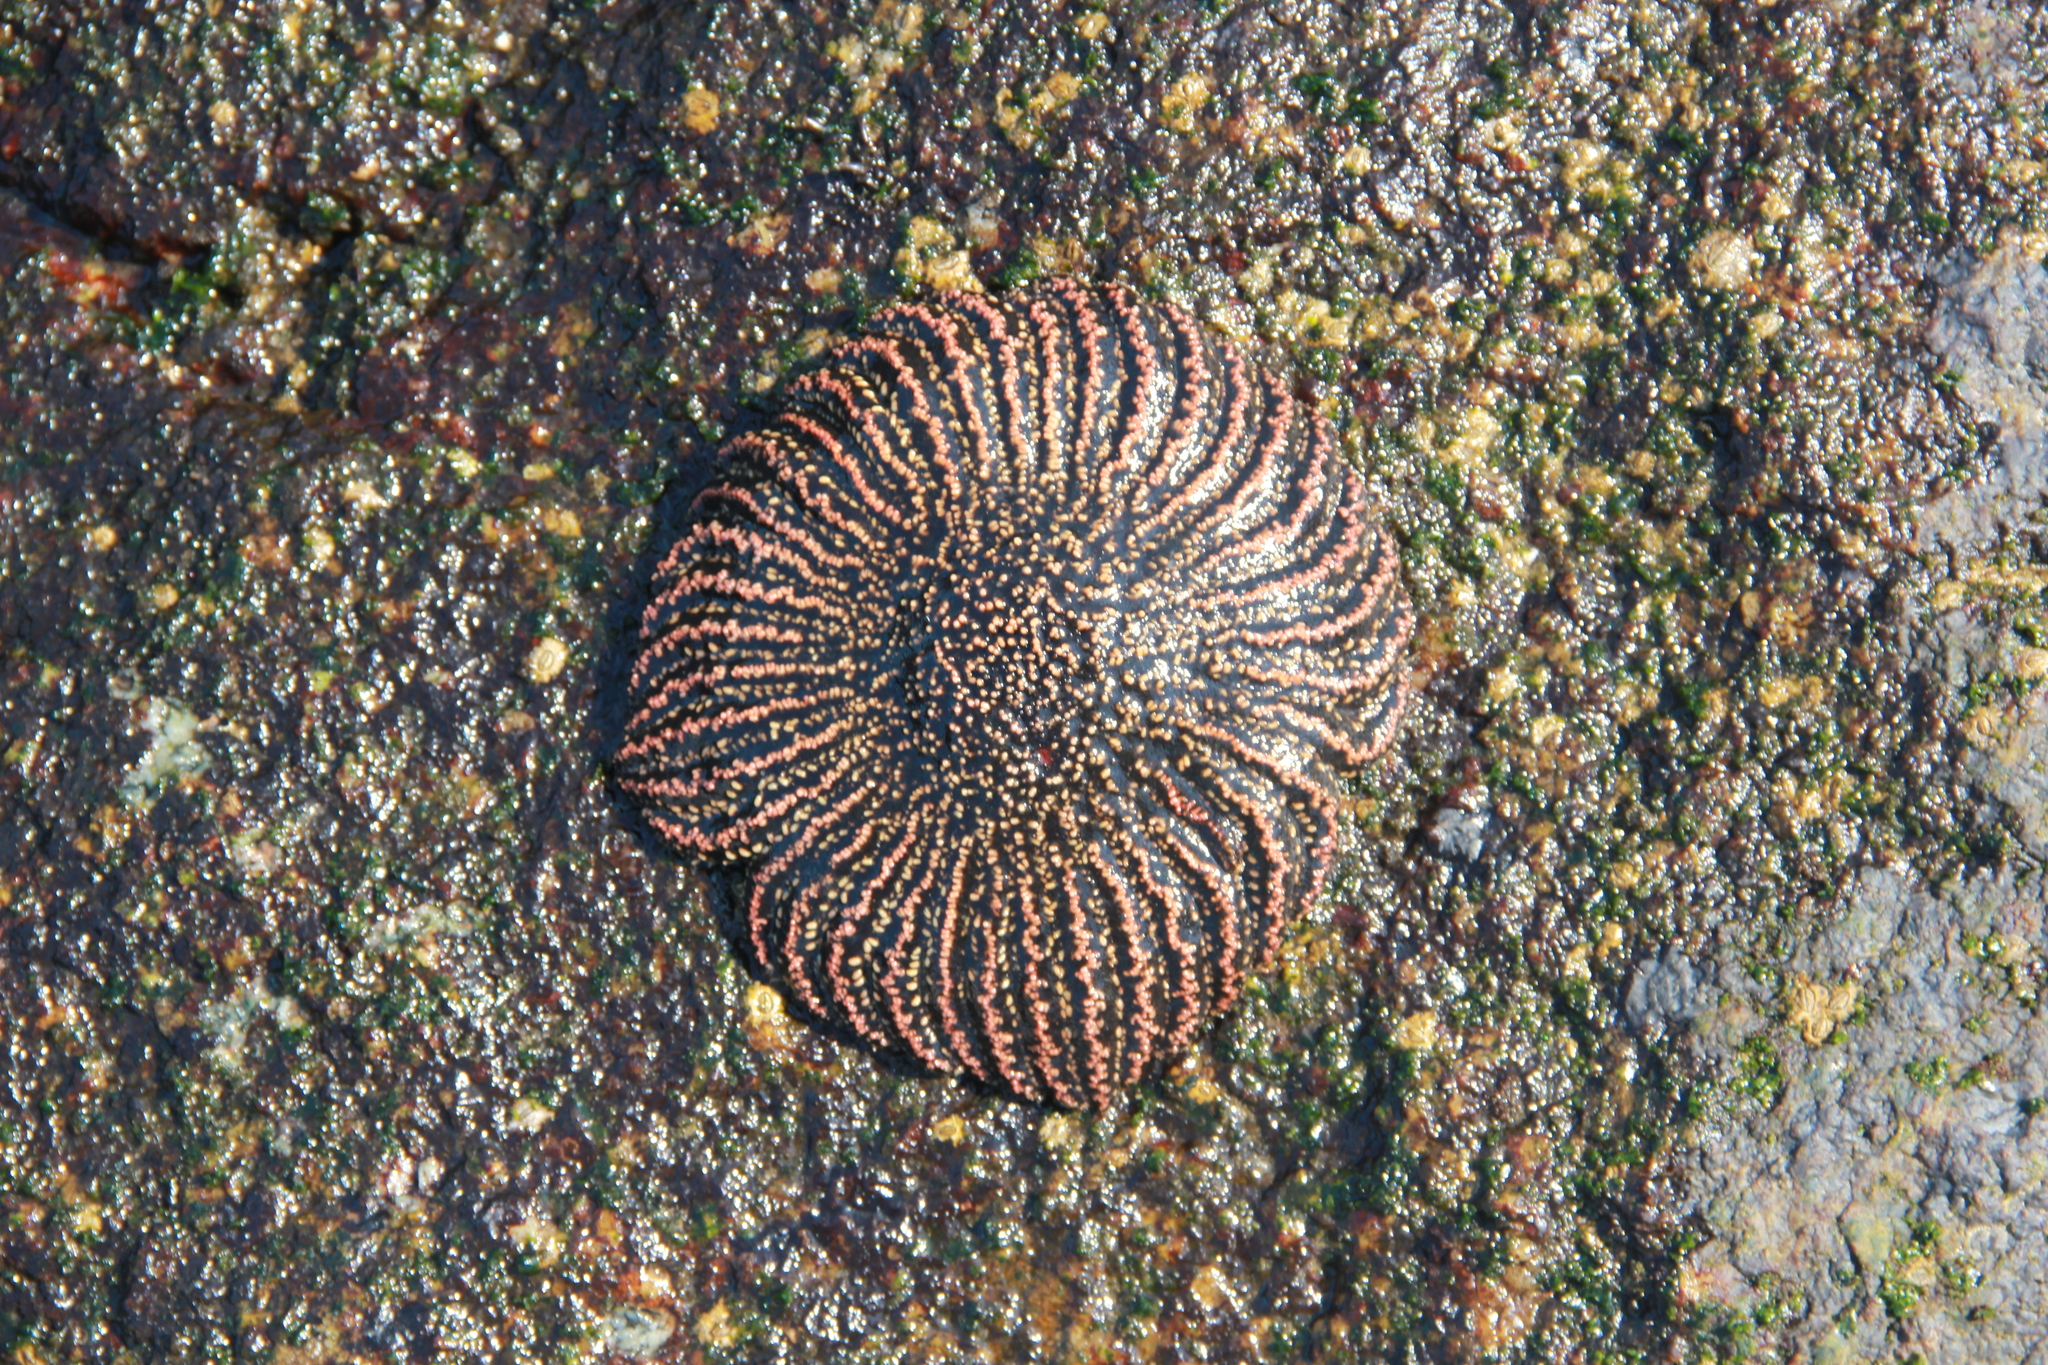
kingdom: Animalia
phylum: Echinodermata
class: Asteroidea
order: Forcipulatida
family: Heliasteridae
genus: Heliaster
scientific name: Heliaster helianthus
